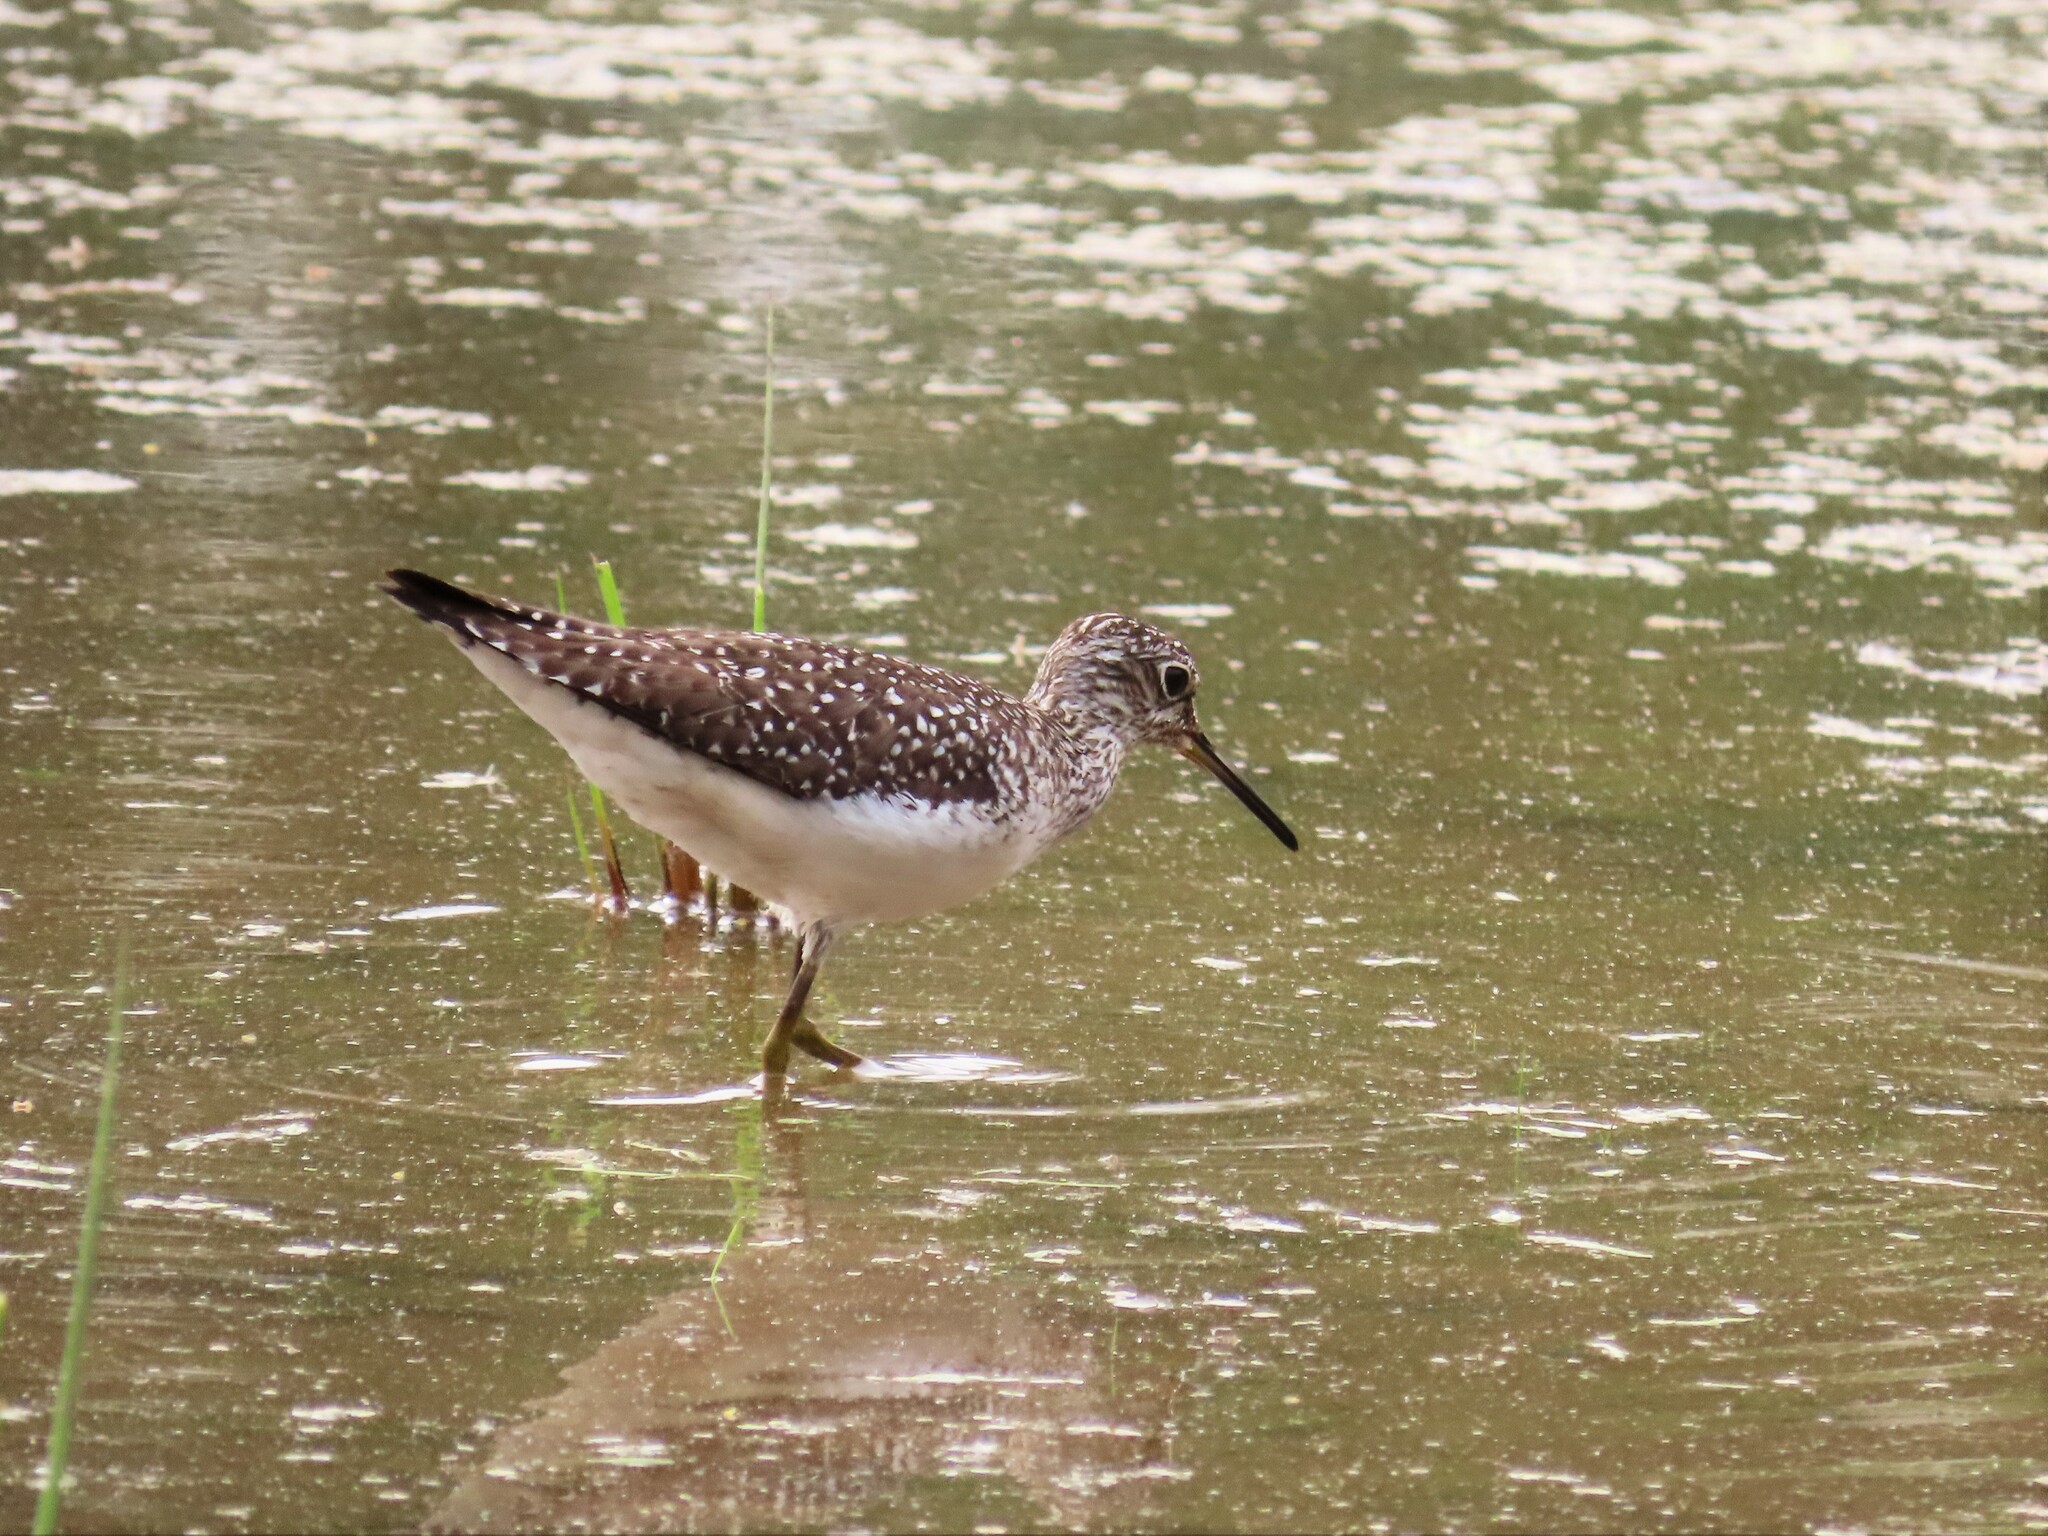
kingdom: Animalia
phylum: Chordata
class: Aves
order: Charadriiformes
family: Scolopacidae
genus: Tringa
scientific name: Tringa solitaria
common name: Solitary sandpiper
